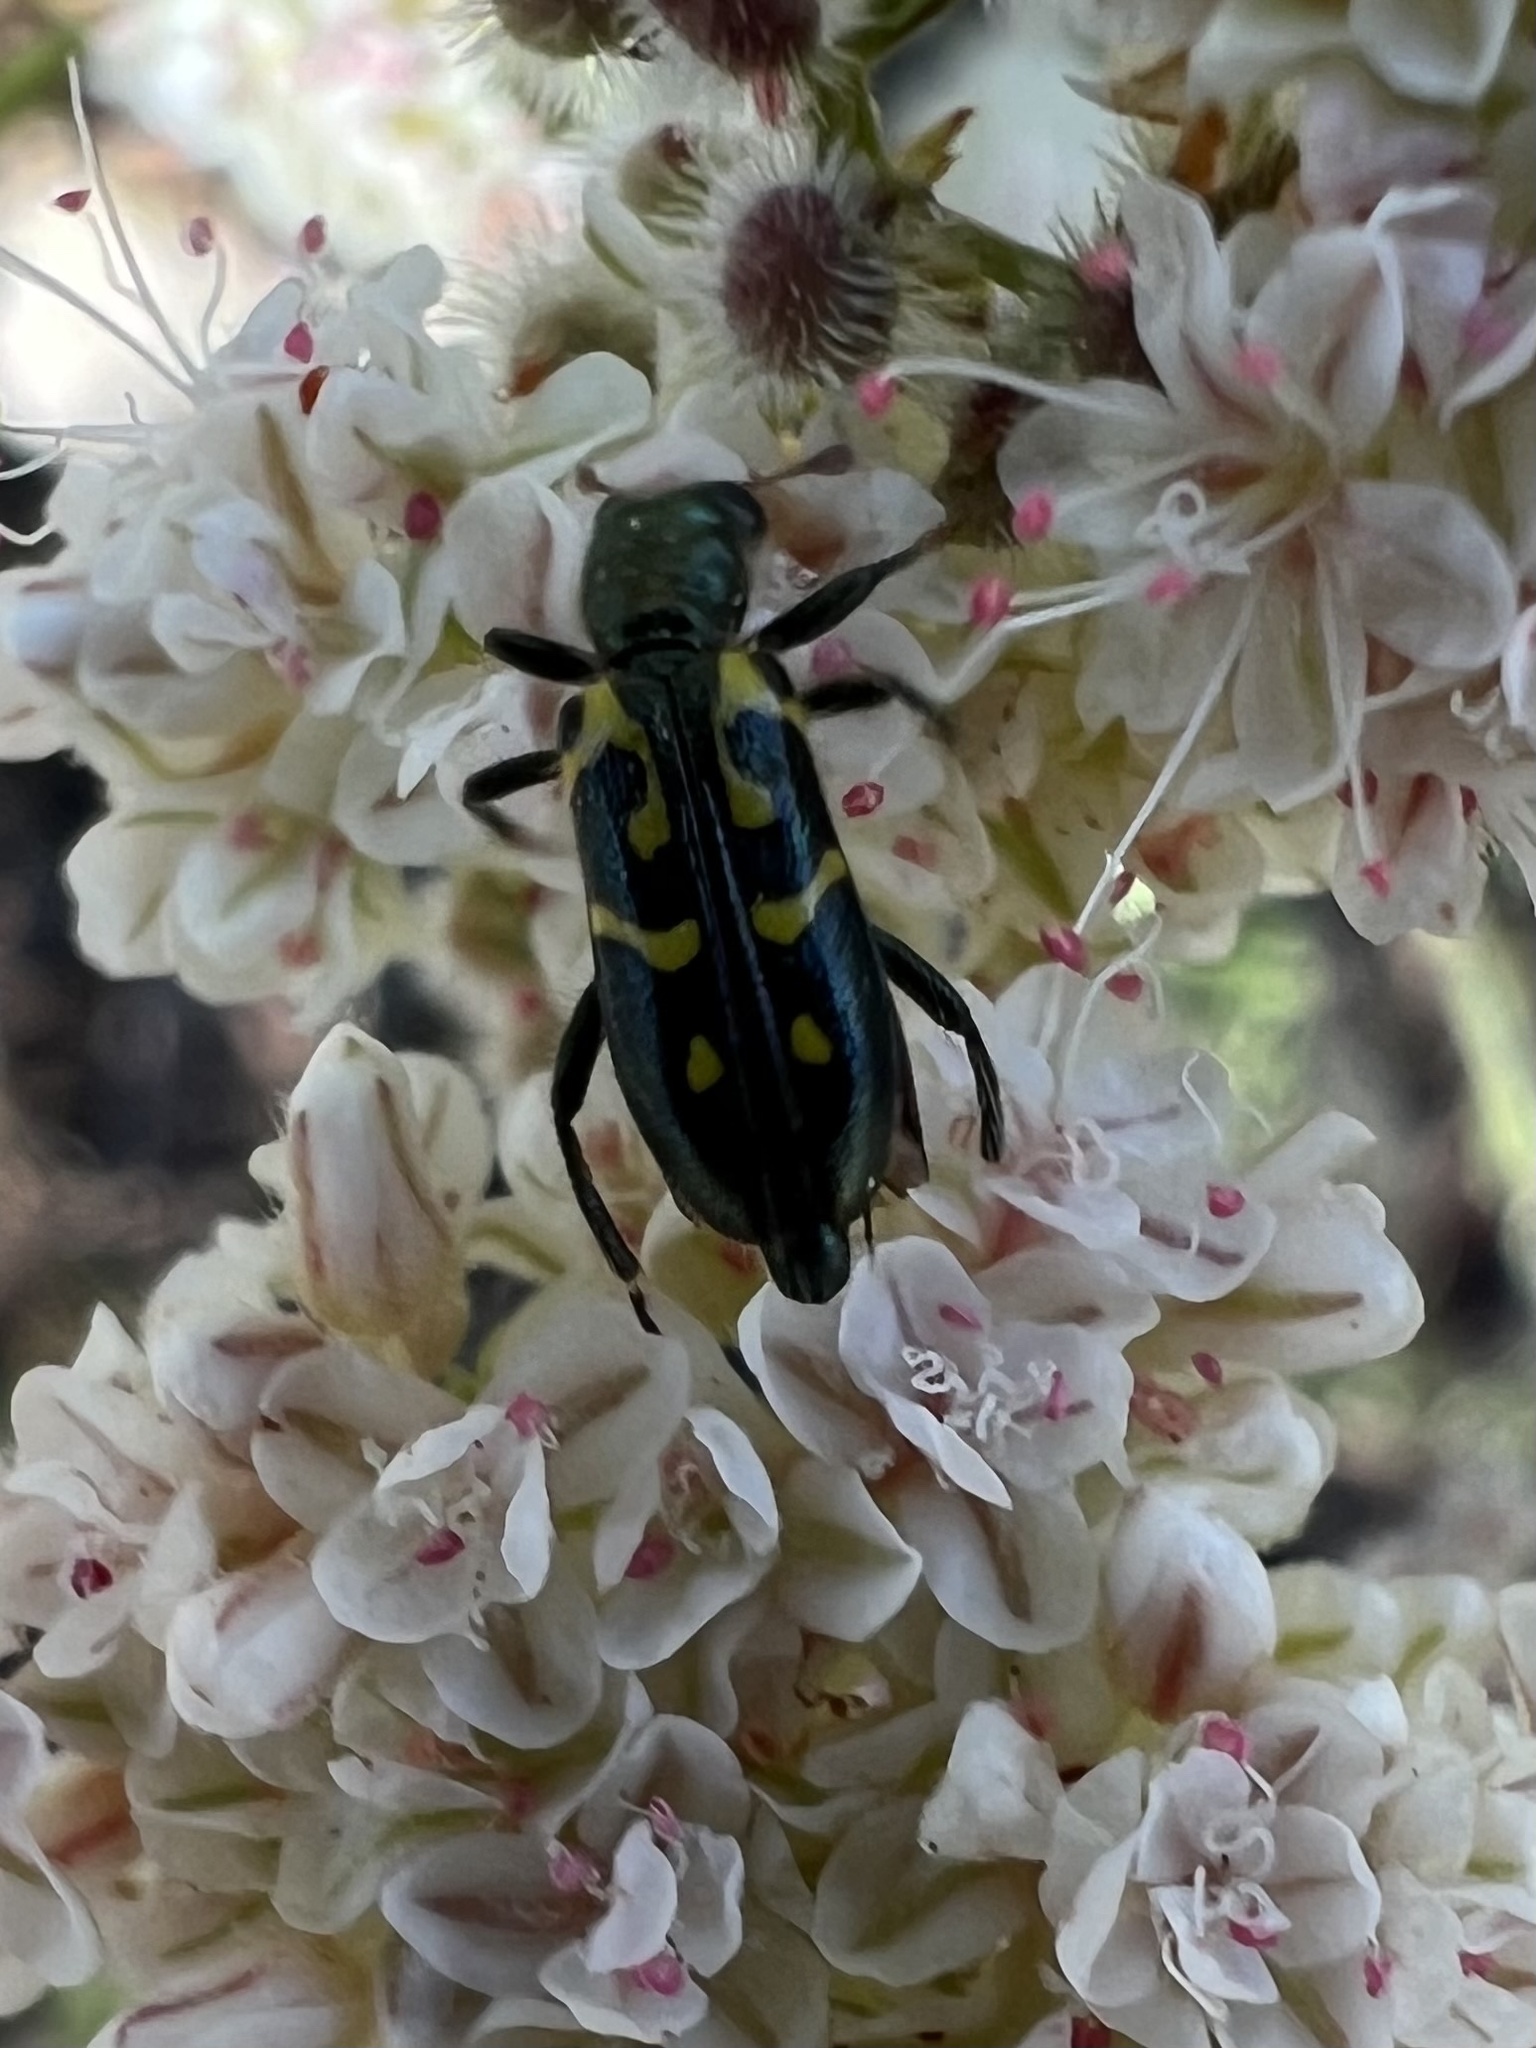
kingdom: Animalia
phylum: Arthropoda
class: Insecta
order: Coleoptera
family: Cleridae
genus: Trichodes
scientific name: Trichodes ornatus
